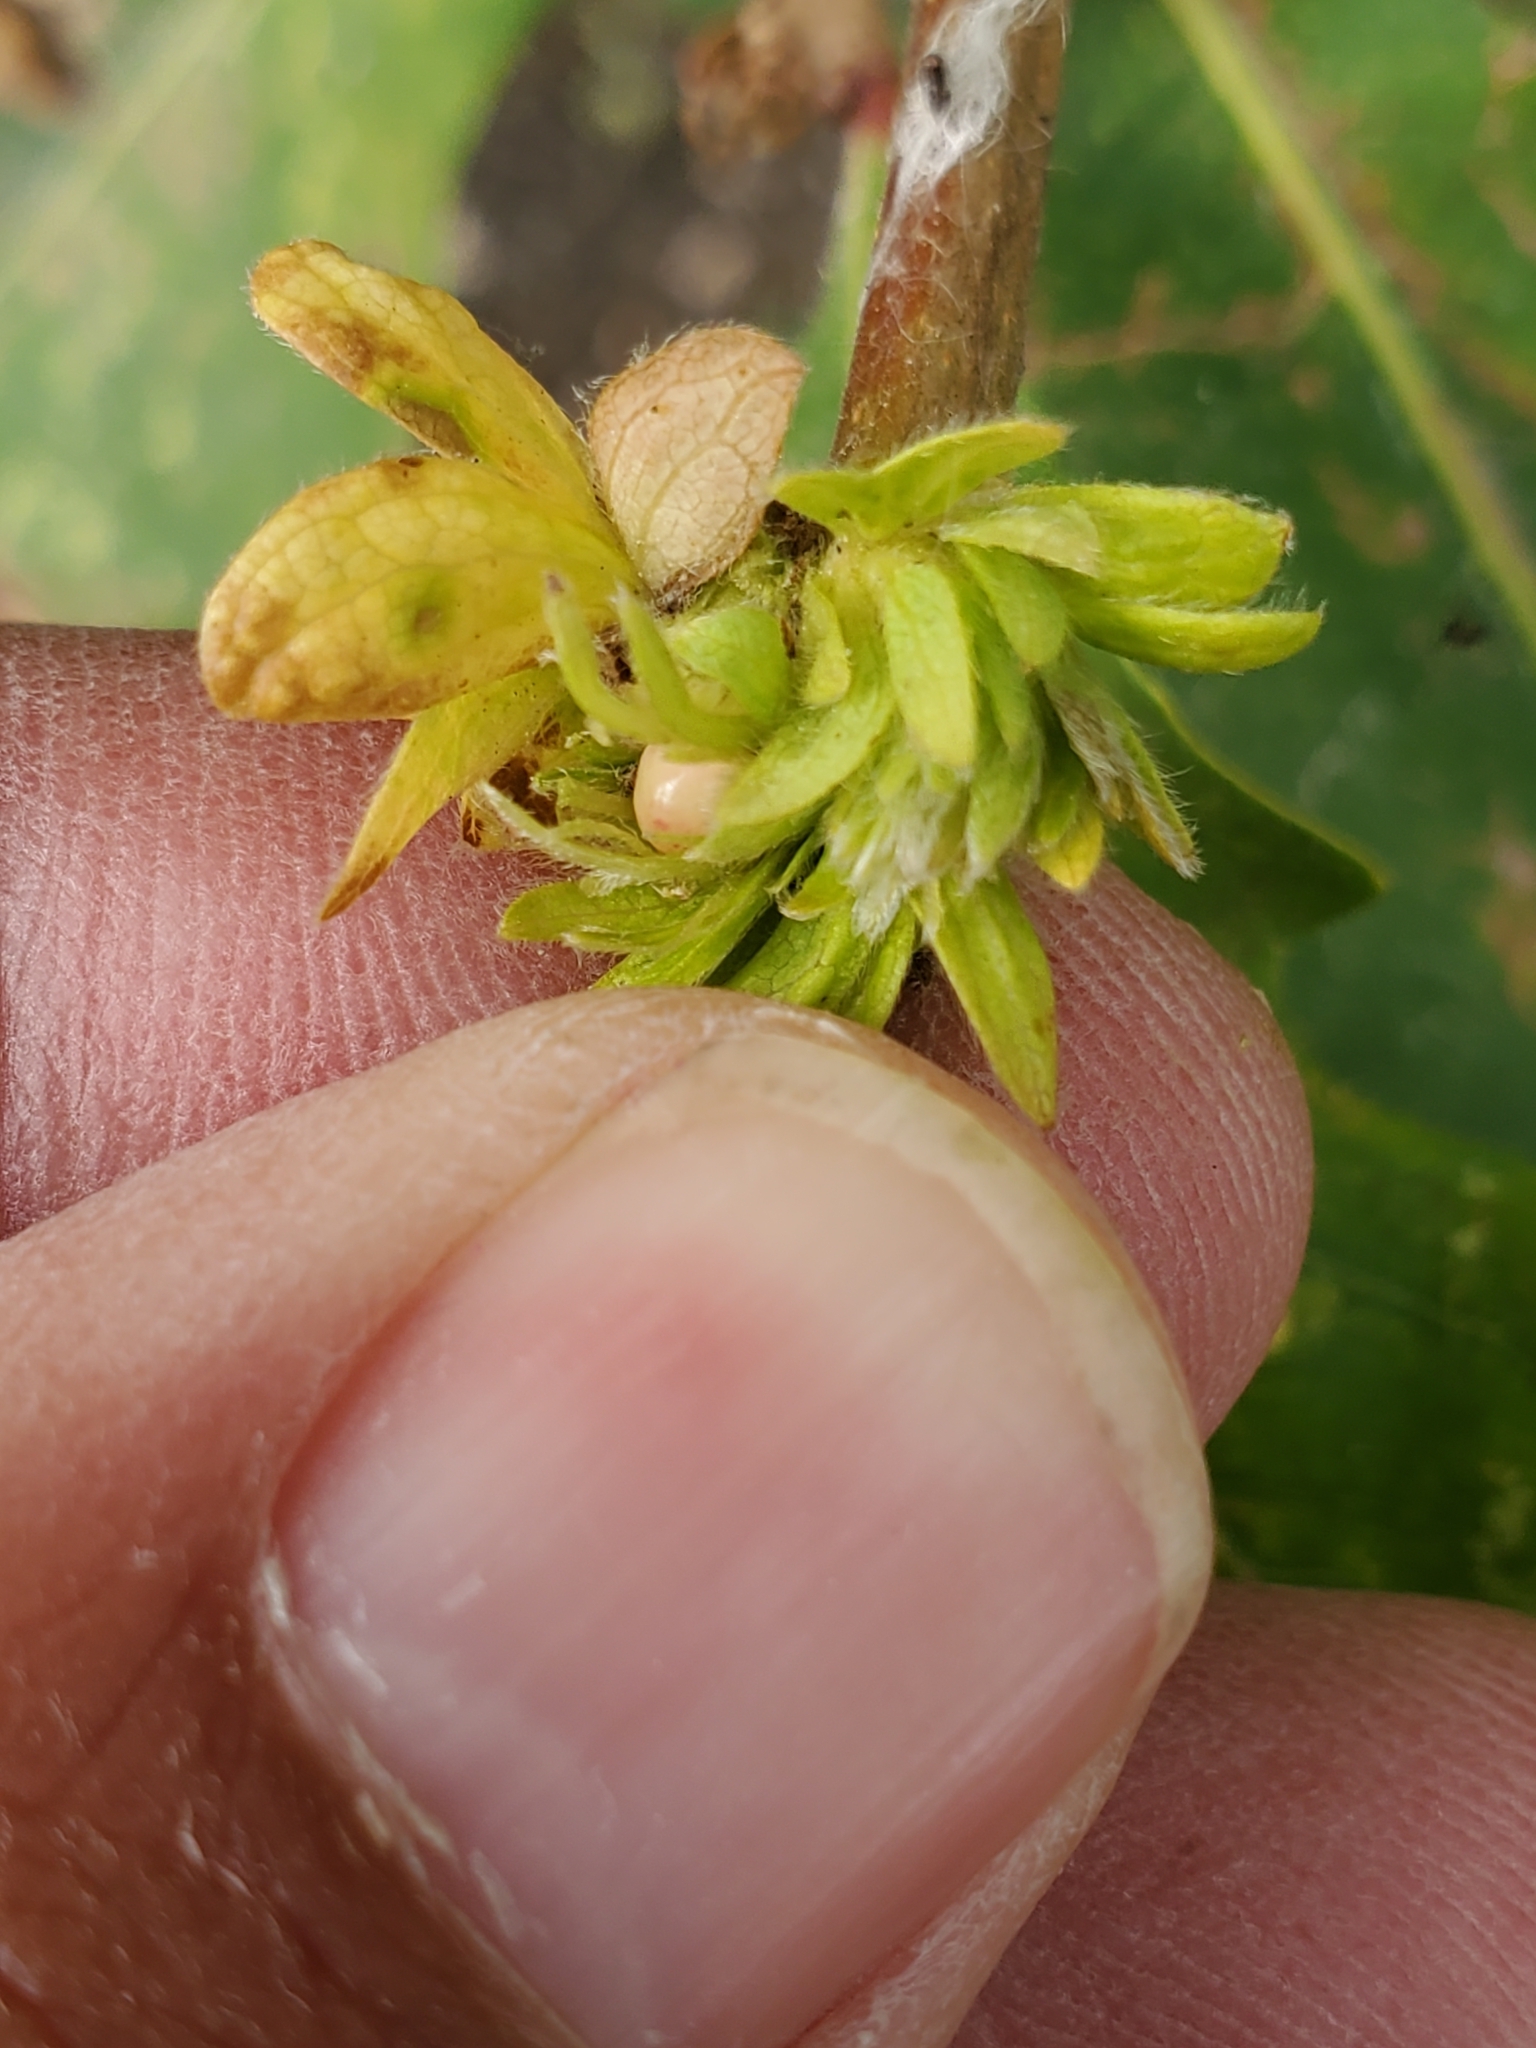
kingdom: Animalia
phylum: Arthropoda
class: Insecta
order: Hymenoptera
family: Cynipidae
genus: Andricus
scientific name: Andricus
